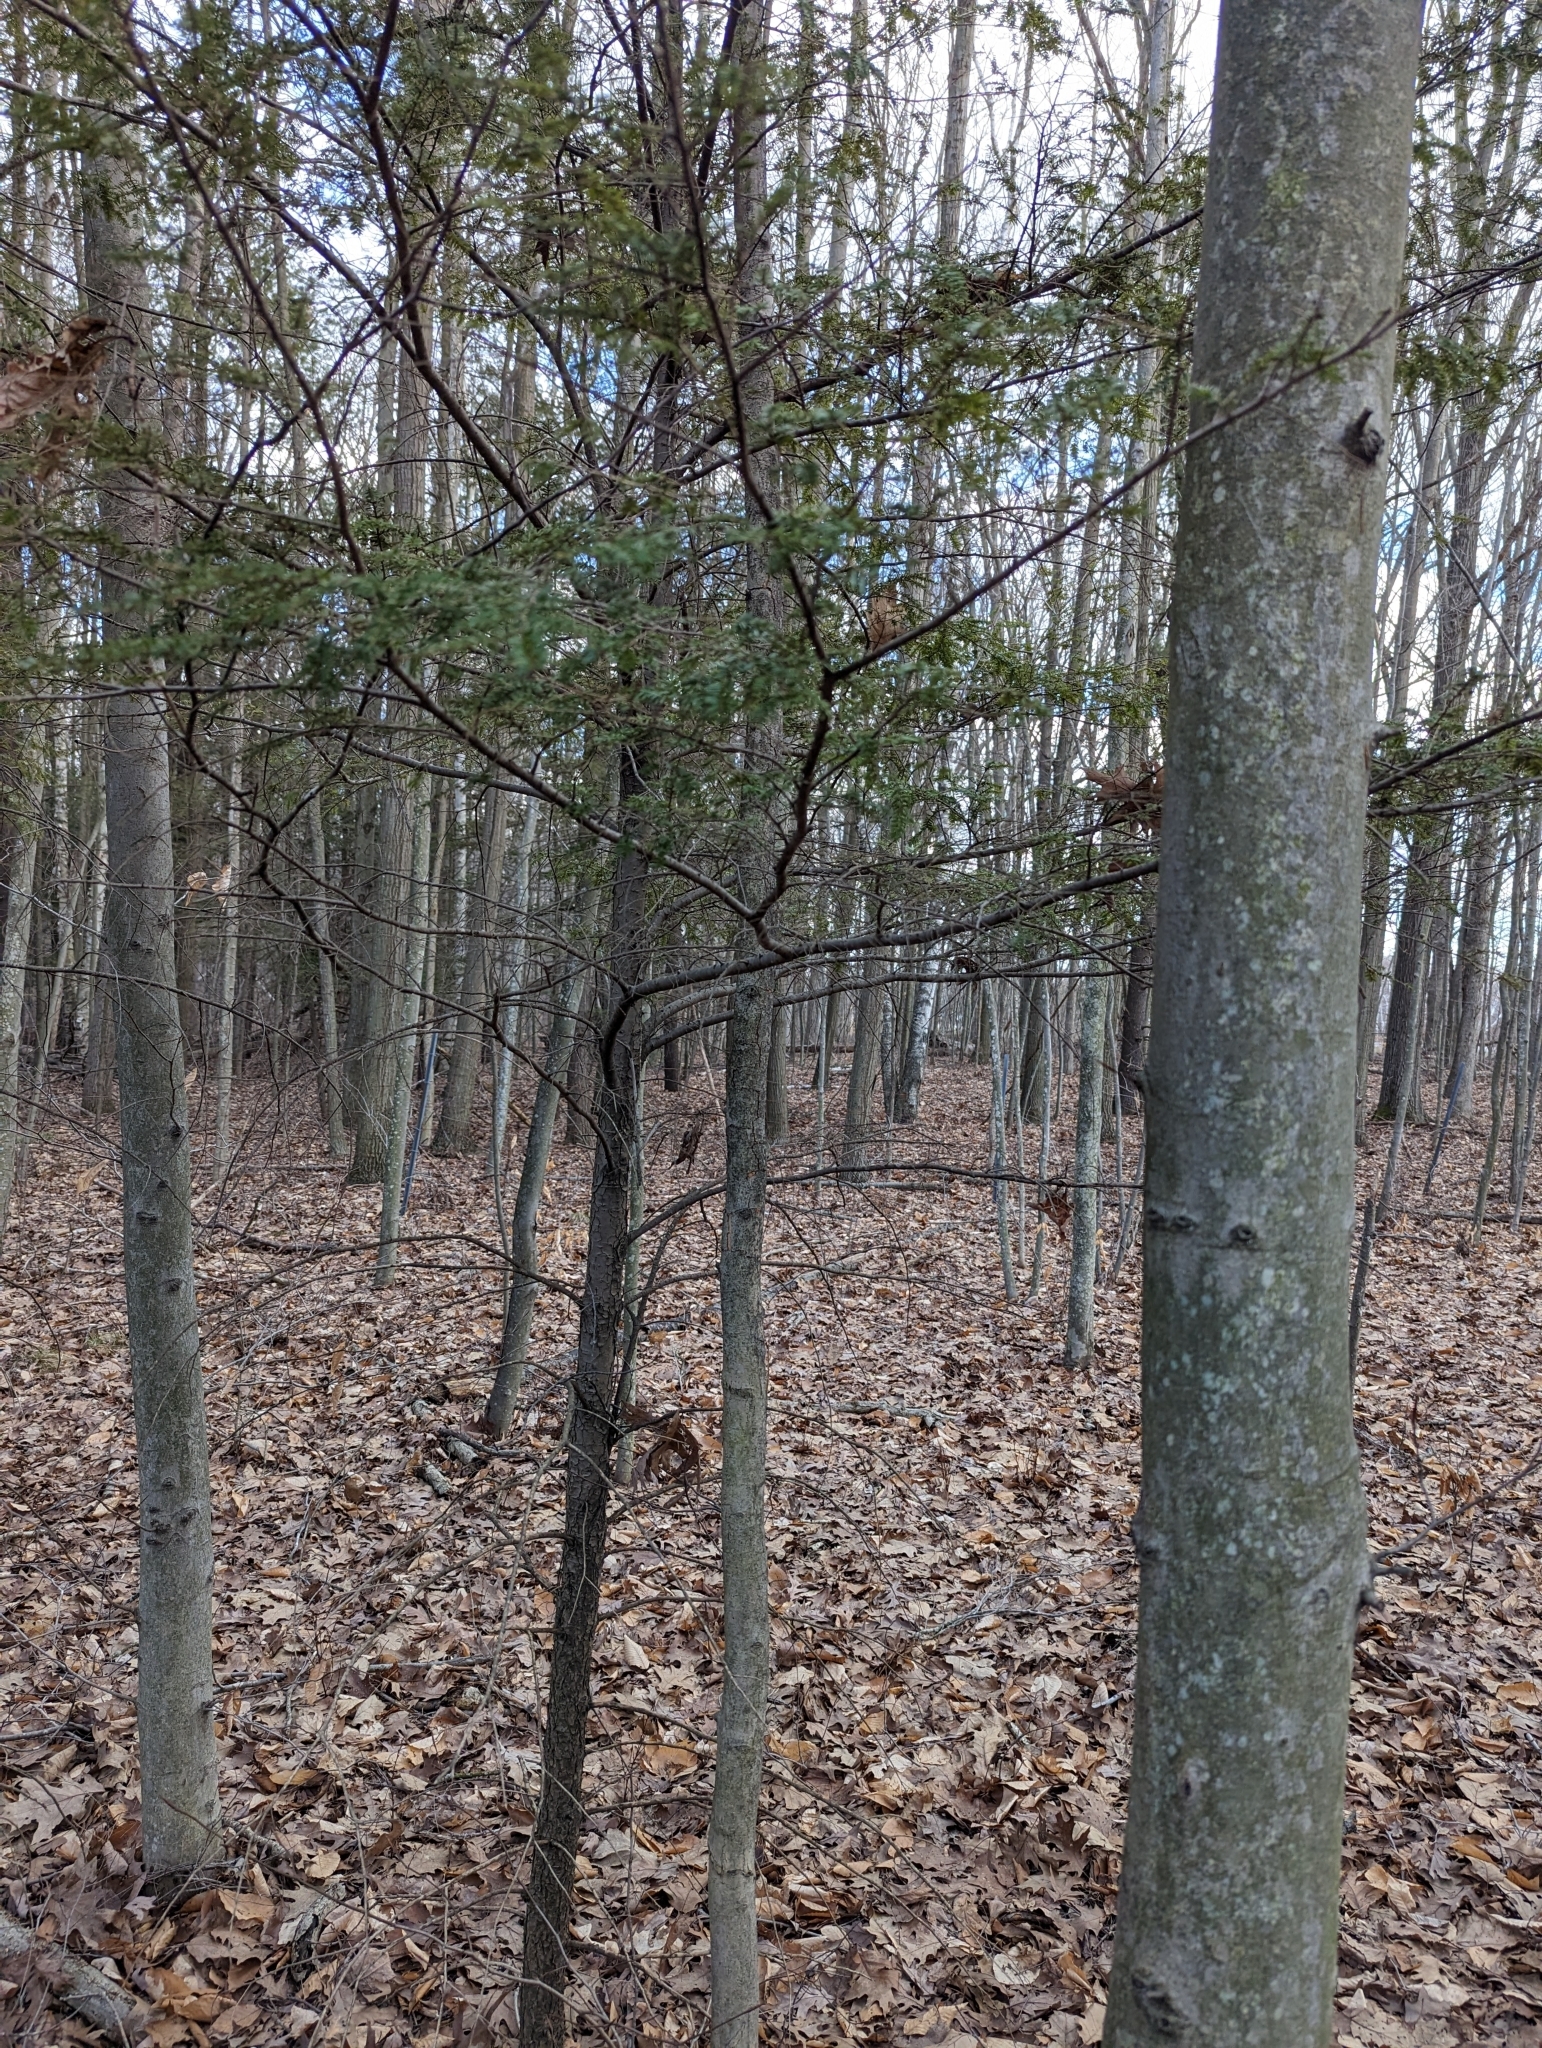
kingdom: Plantae
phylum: Tracheophyta
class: Pinopsida
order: Pinales
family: Pinaceae
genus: Tsuga
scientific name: Tsuga canadensis
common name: Eastern hemlock
